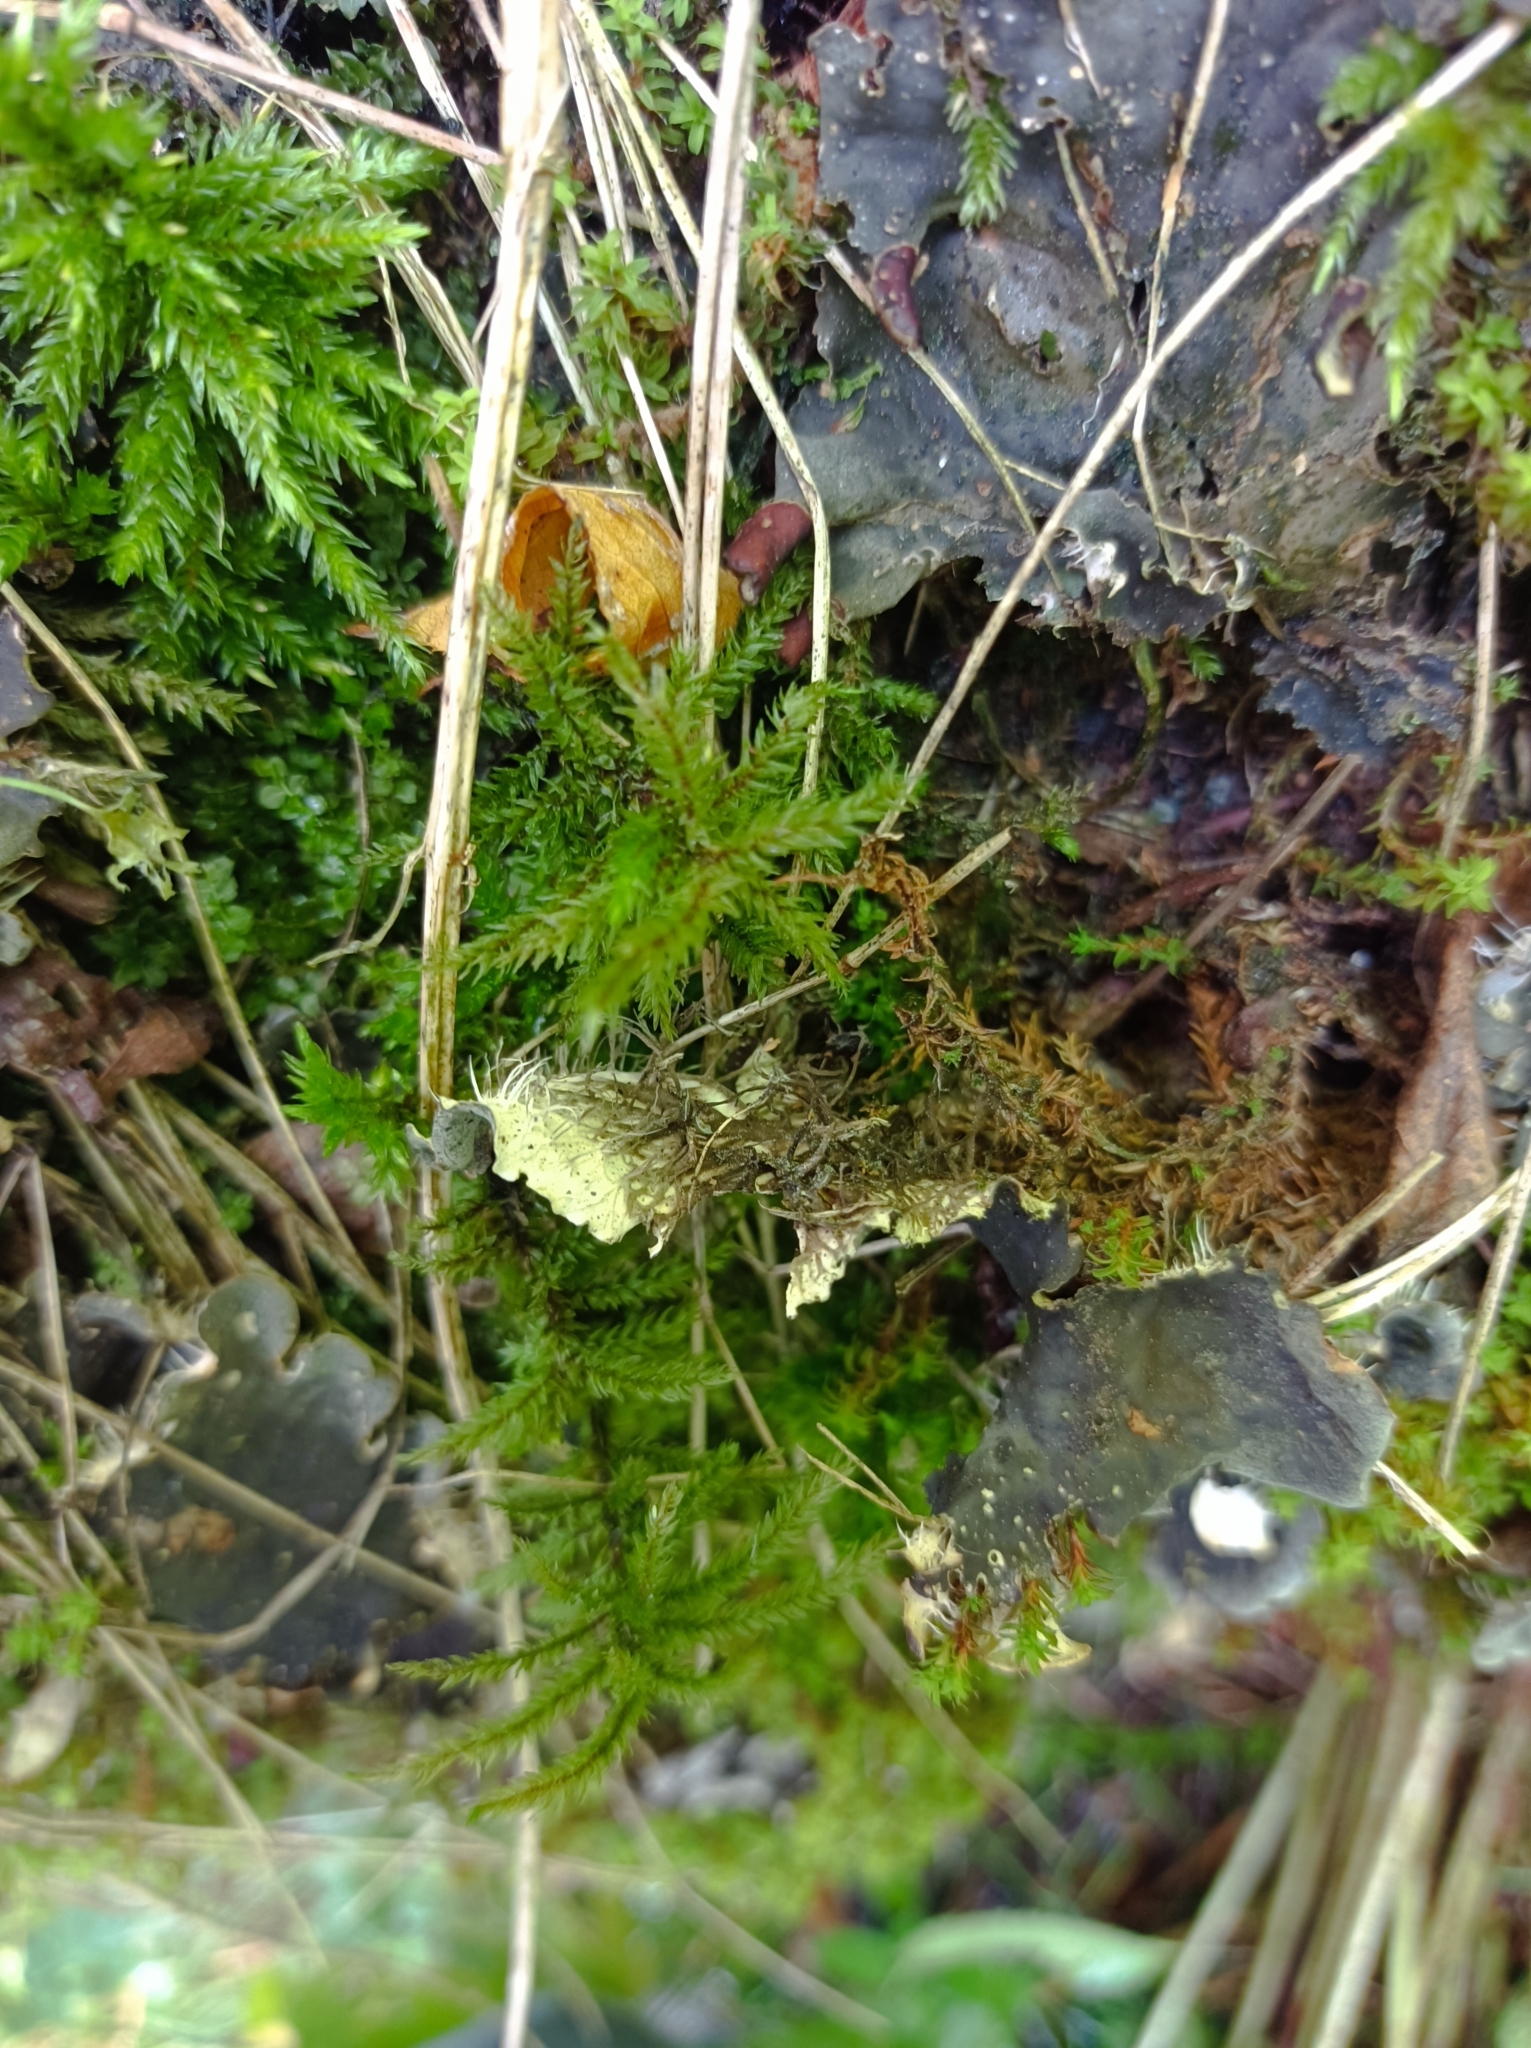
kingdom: Plantae
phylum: Bryophyta
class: Bryopsida
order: Hypnales
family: Climaciaceae
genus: Climacium
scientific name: Climacium dendroides
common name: Northern tree moss
